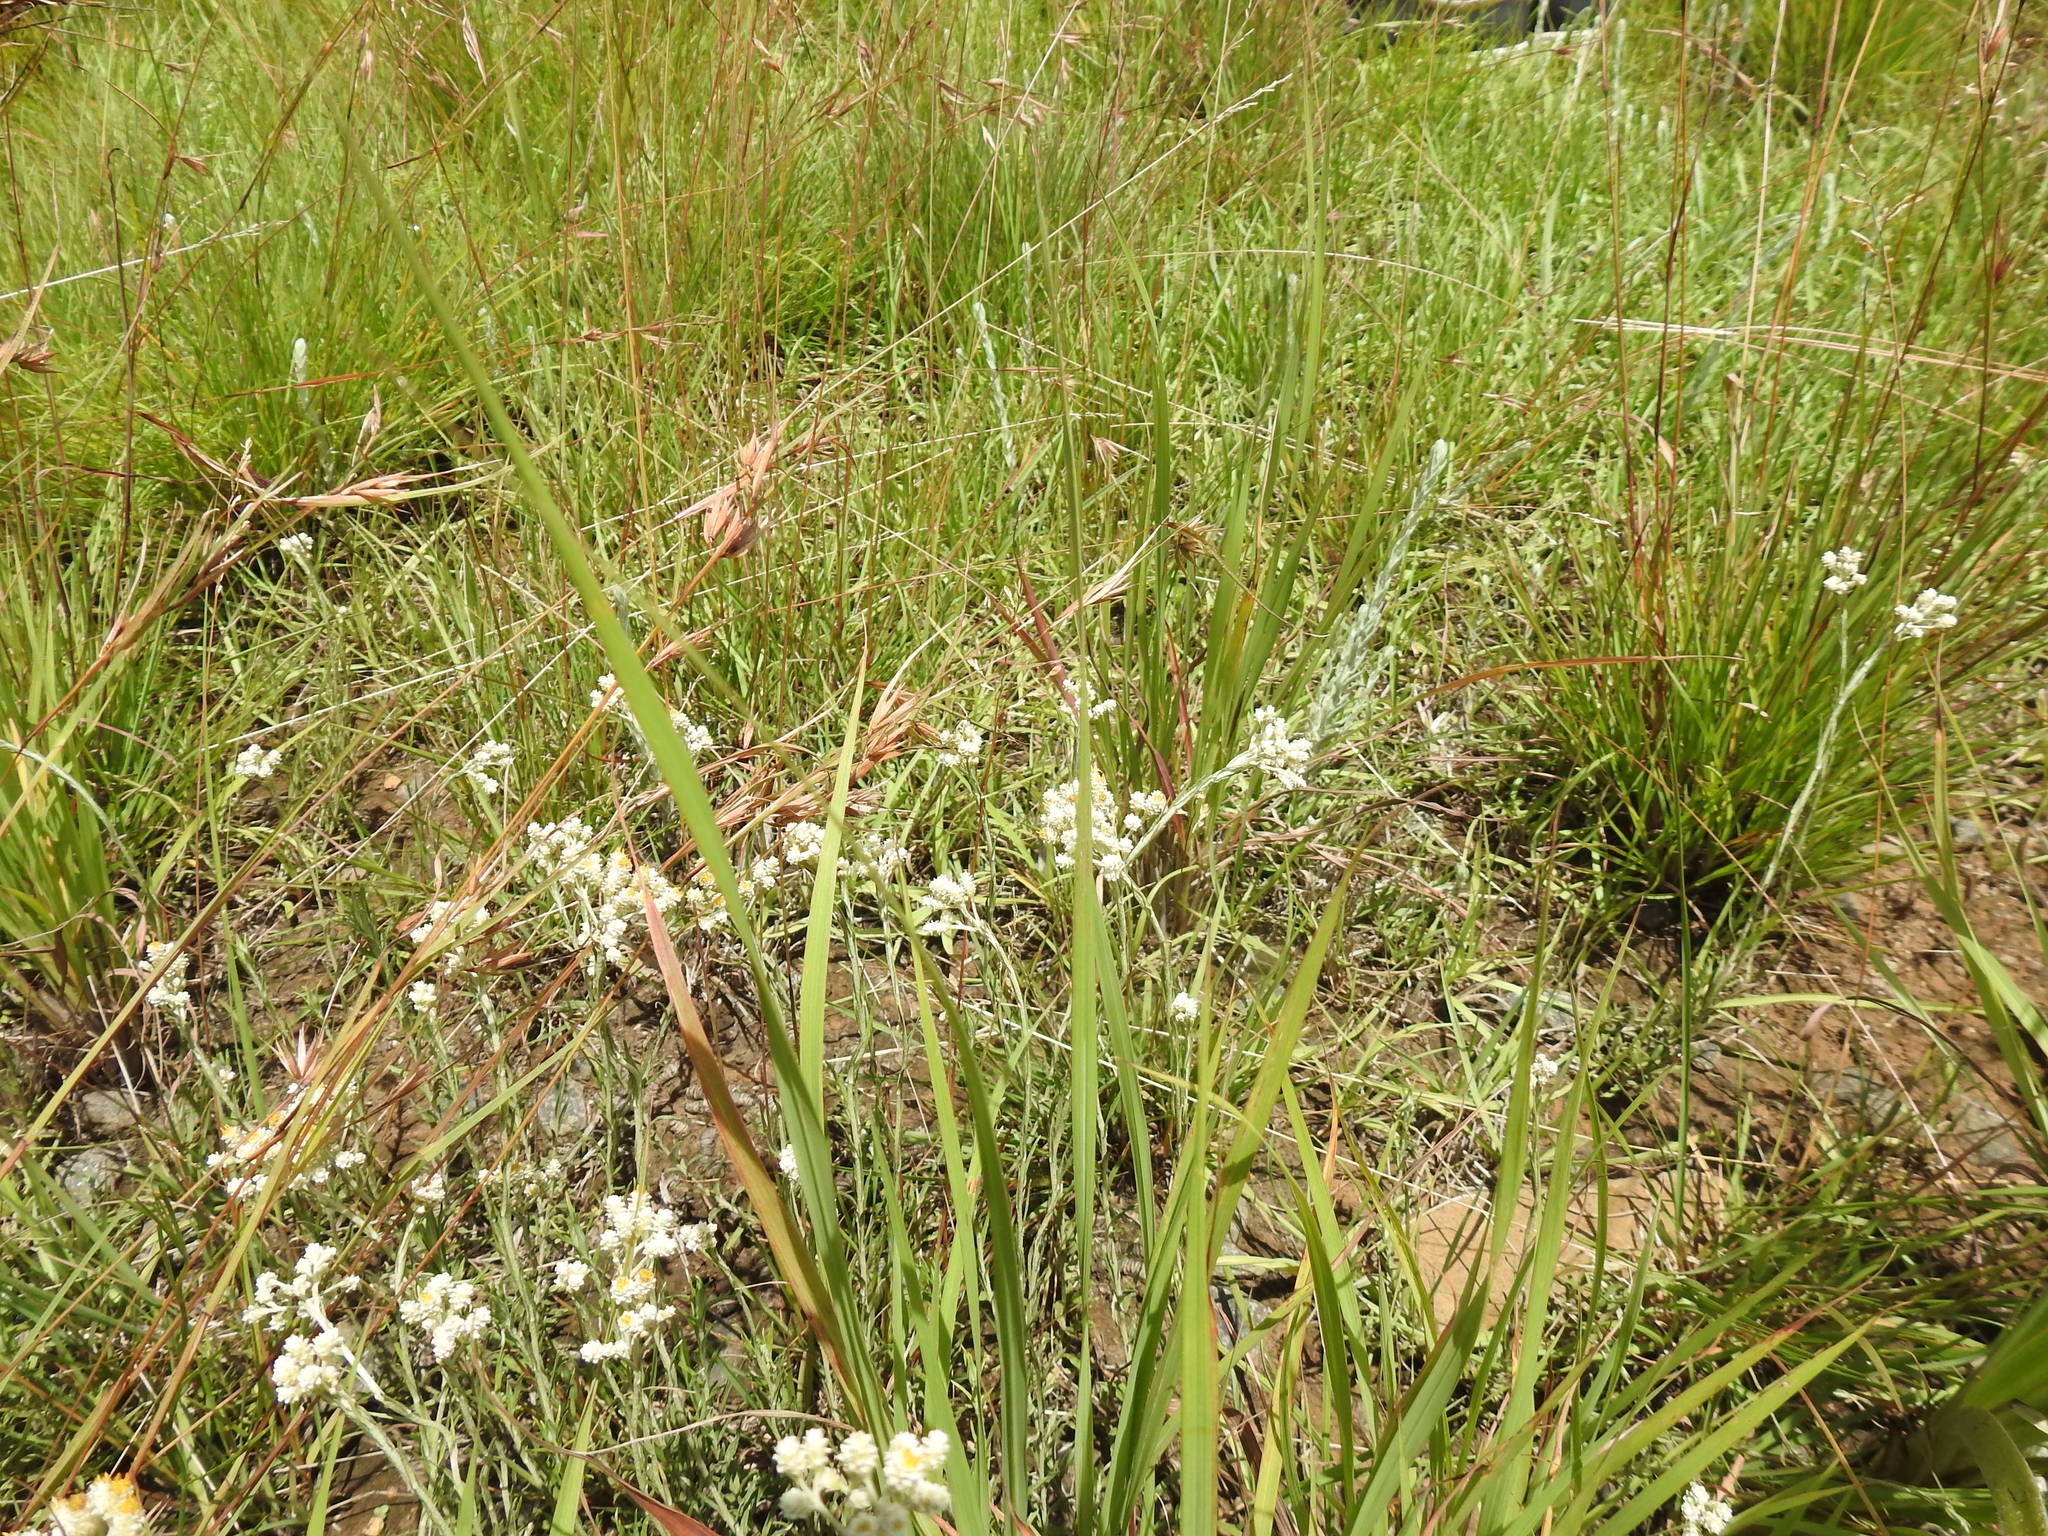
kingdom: Plantae
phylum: Tracheophyta
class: Magnoliopsida
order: Asterales
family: Asteraceae
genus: Helichrysum
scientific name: Helichrysum rugulosum
